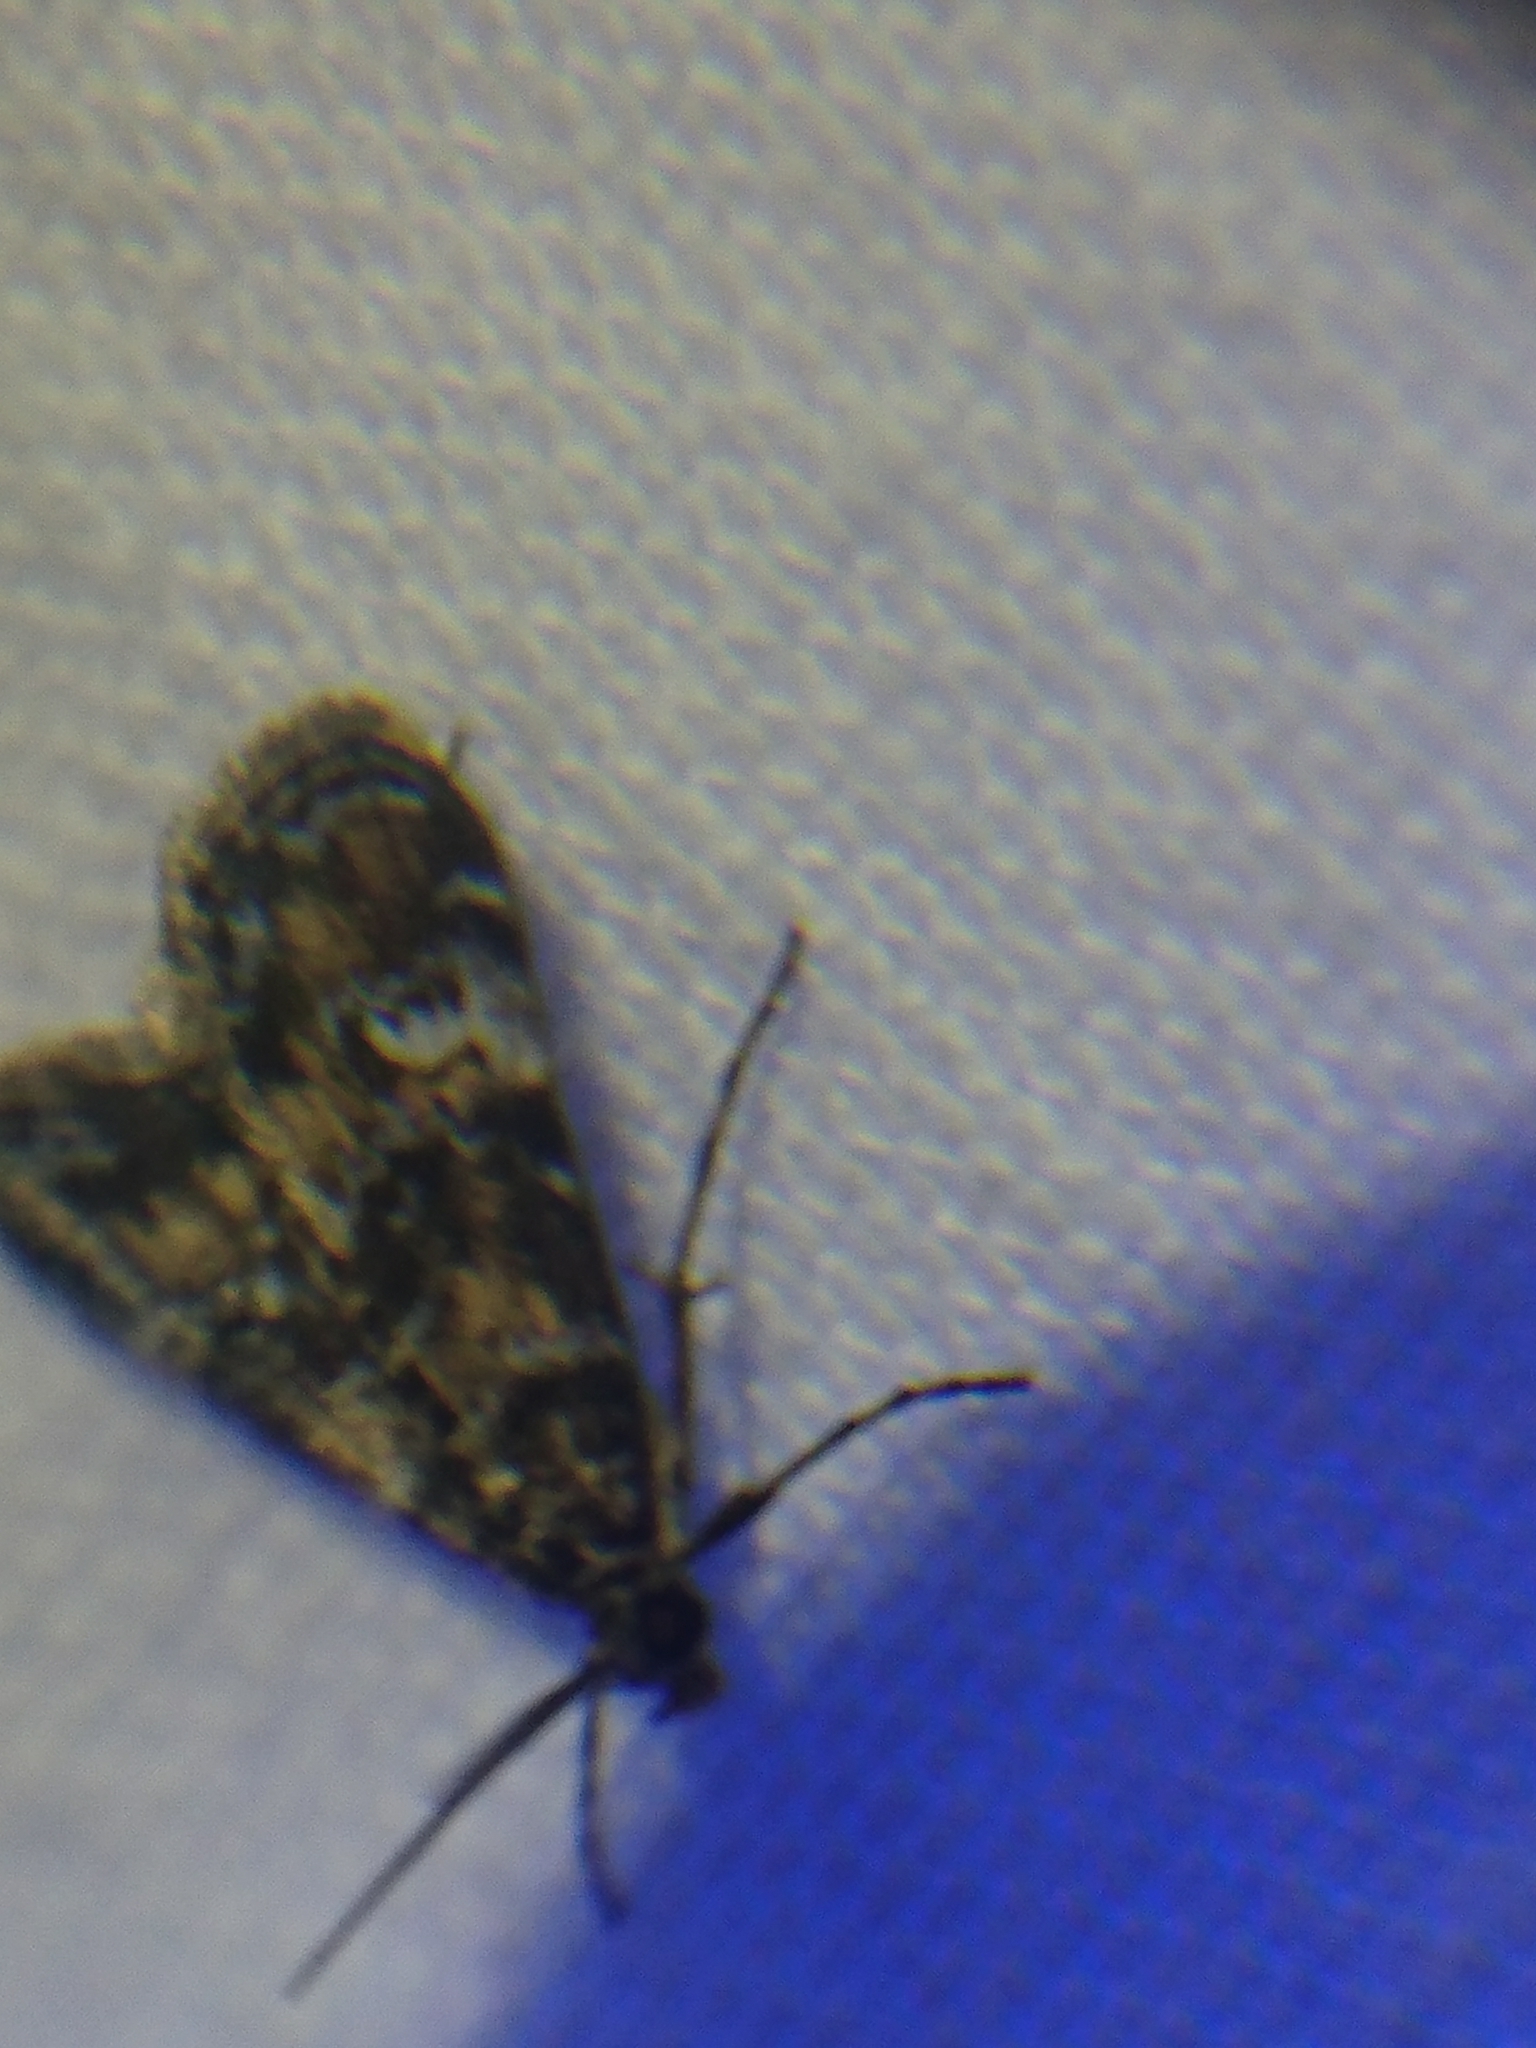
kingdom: Animalia
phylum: Arthropoda
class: Insecta
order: Lepidoptera
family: Crambidae
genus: Elophila
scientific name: Elophila obliteralis
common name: Waterlily leafcutter moth
